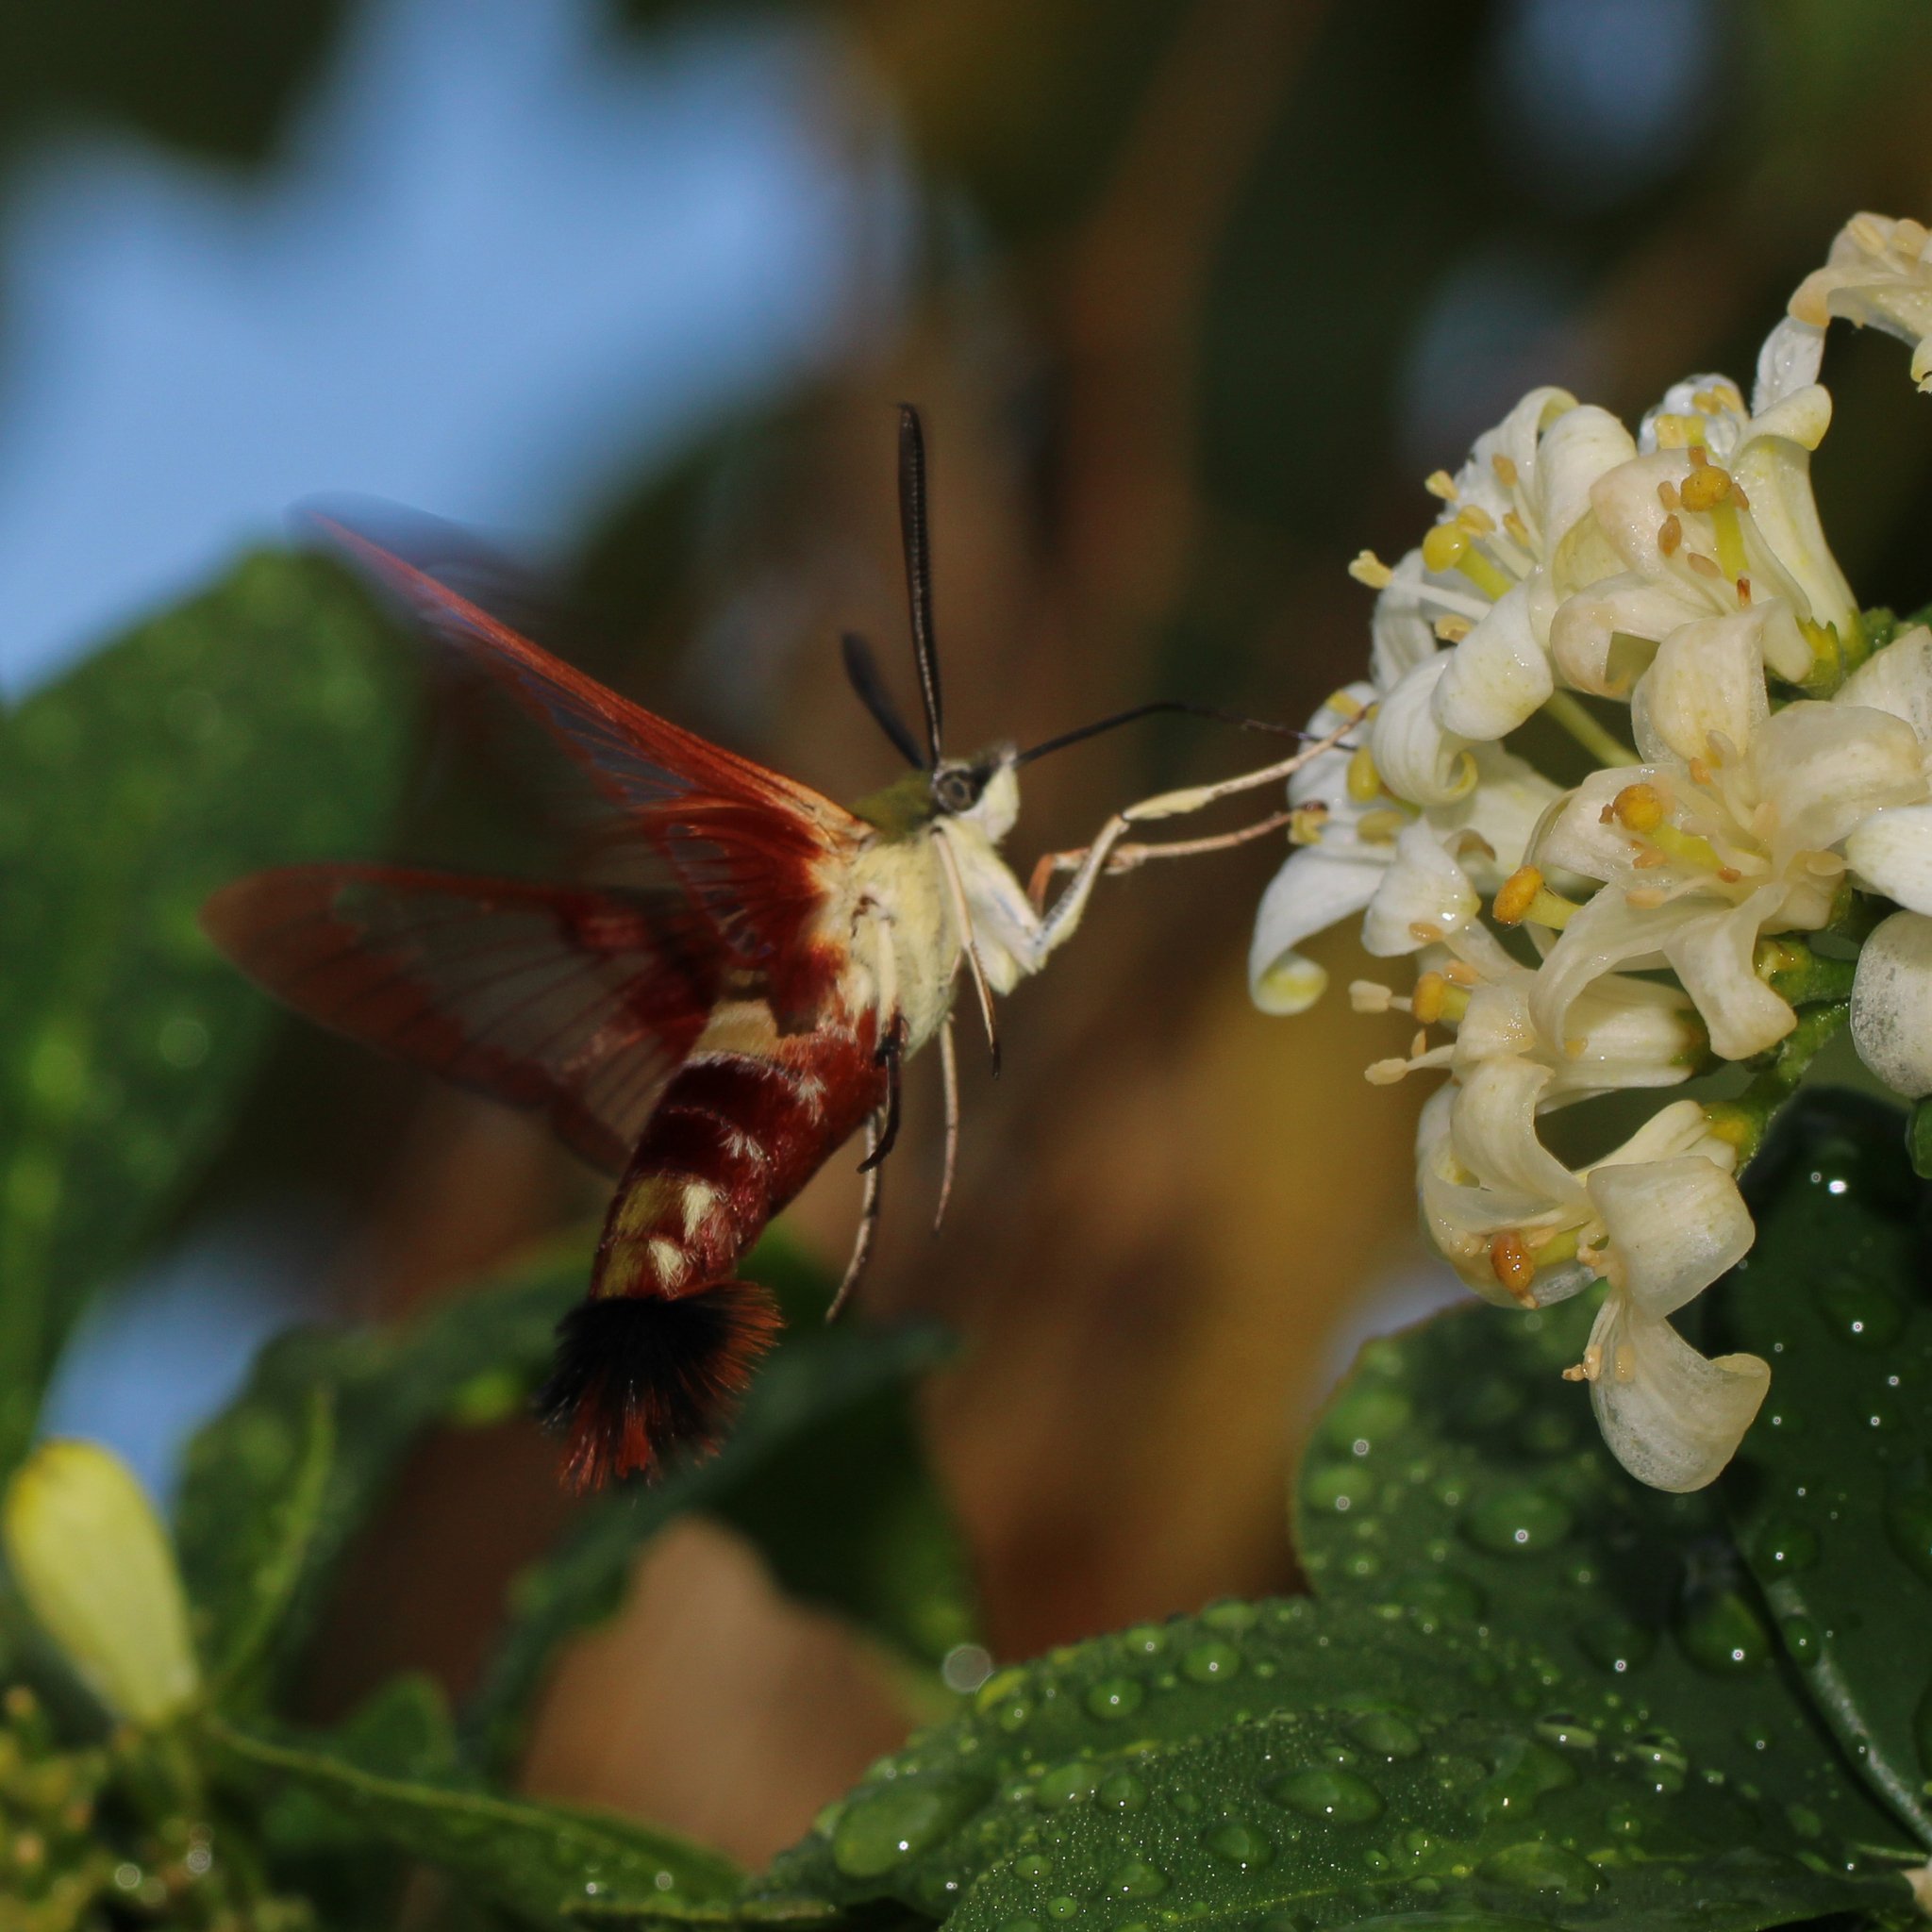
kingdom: Animalia
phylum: Arthropoda
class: Insecta
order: Lepidoptera
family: Sphingidae
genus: Hemaris
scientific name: Hemaris thysbe
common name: Common clear-wing
